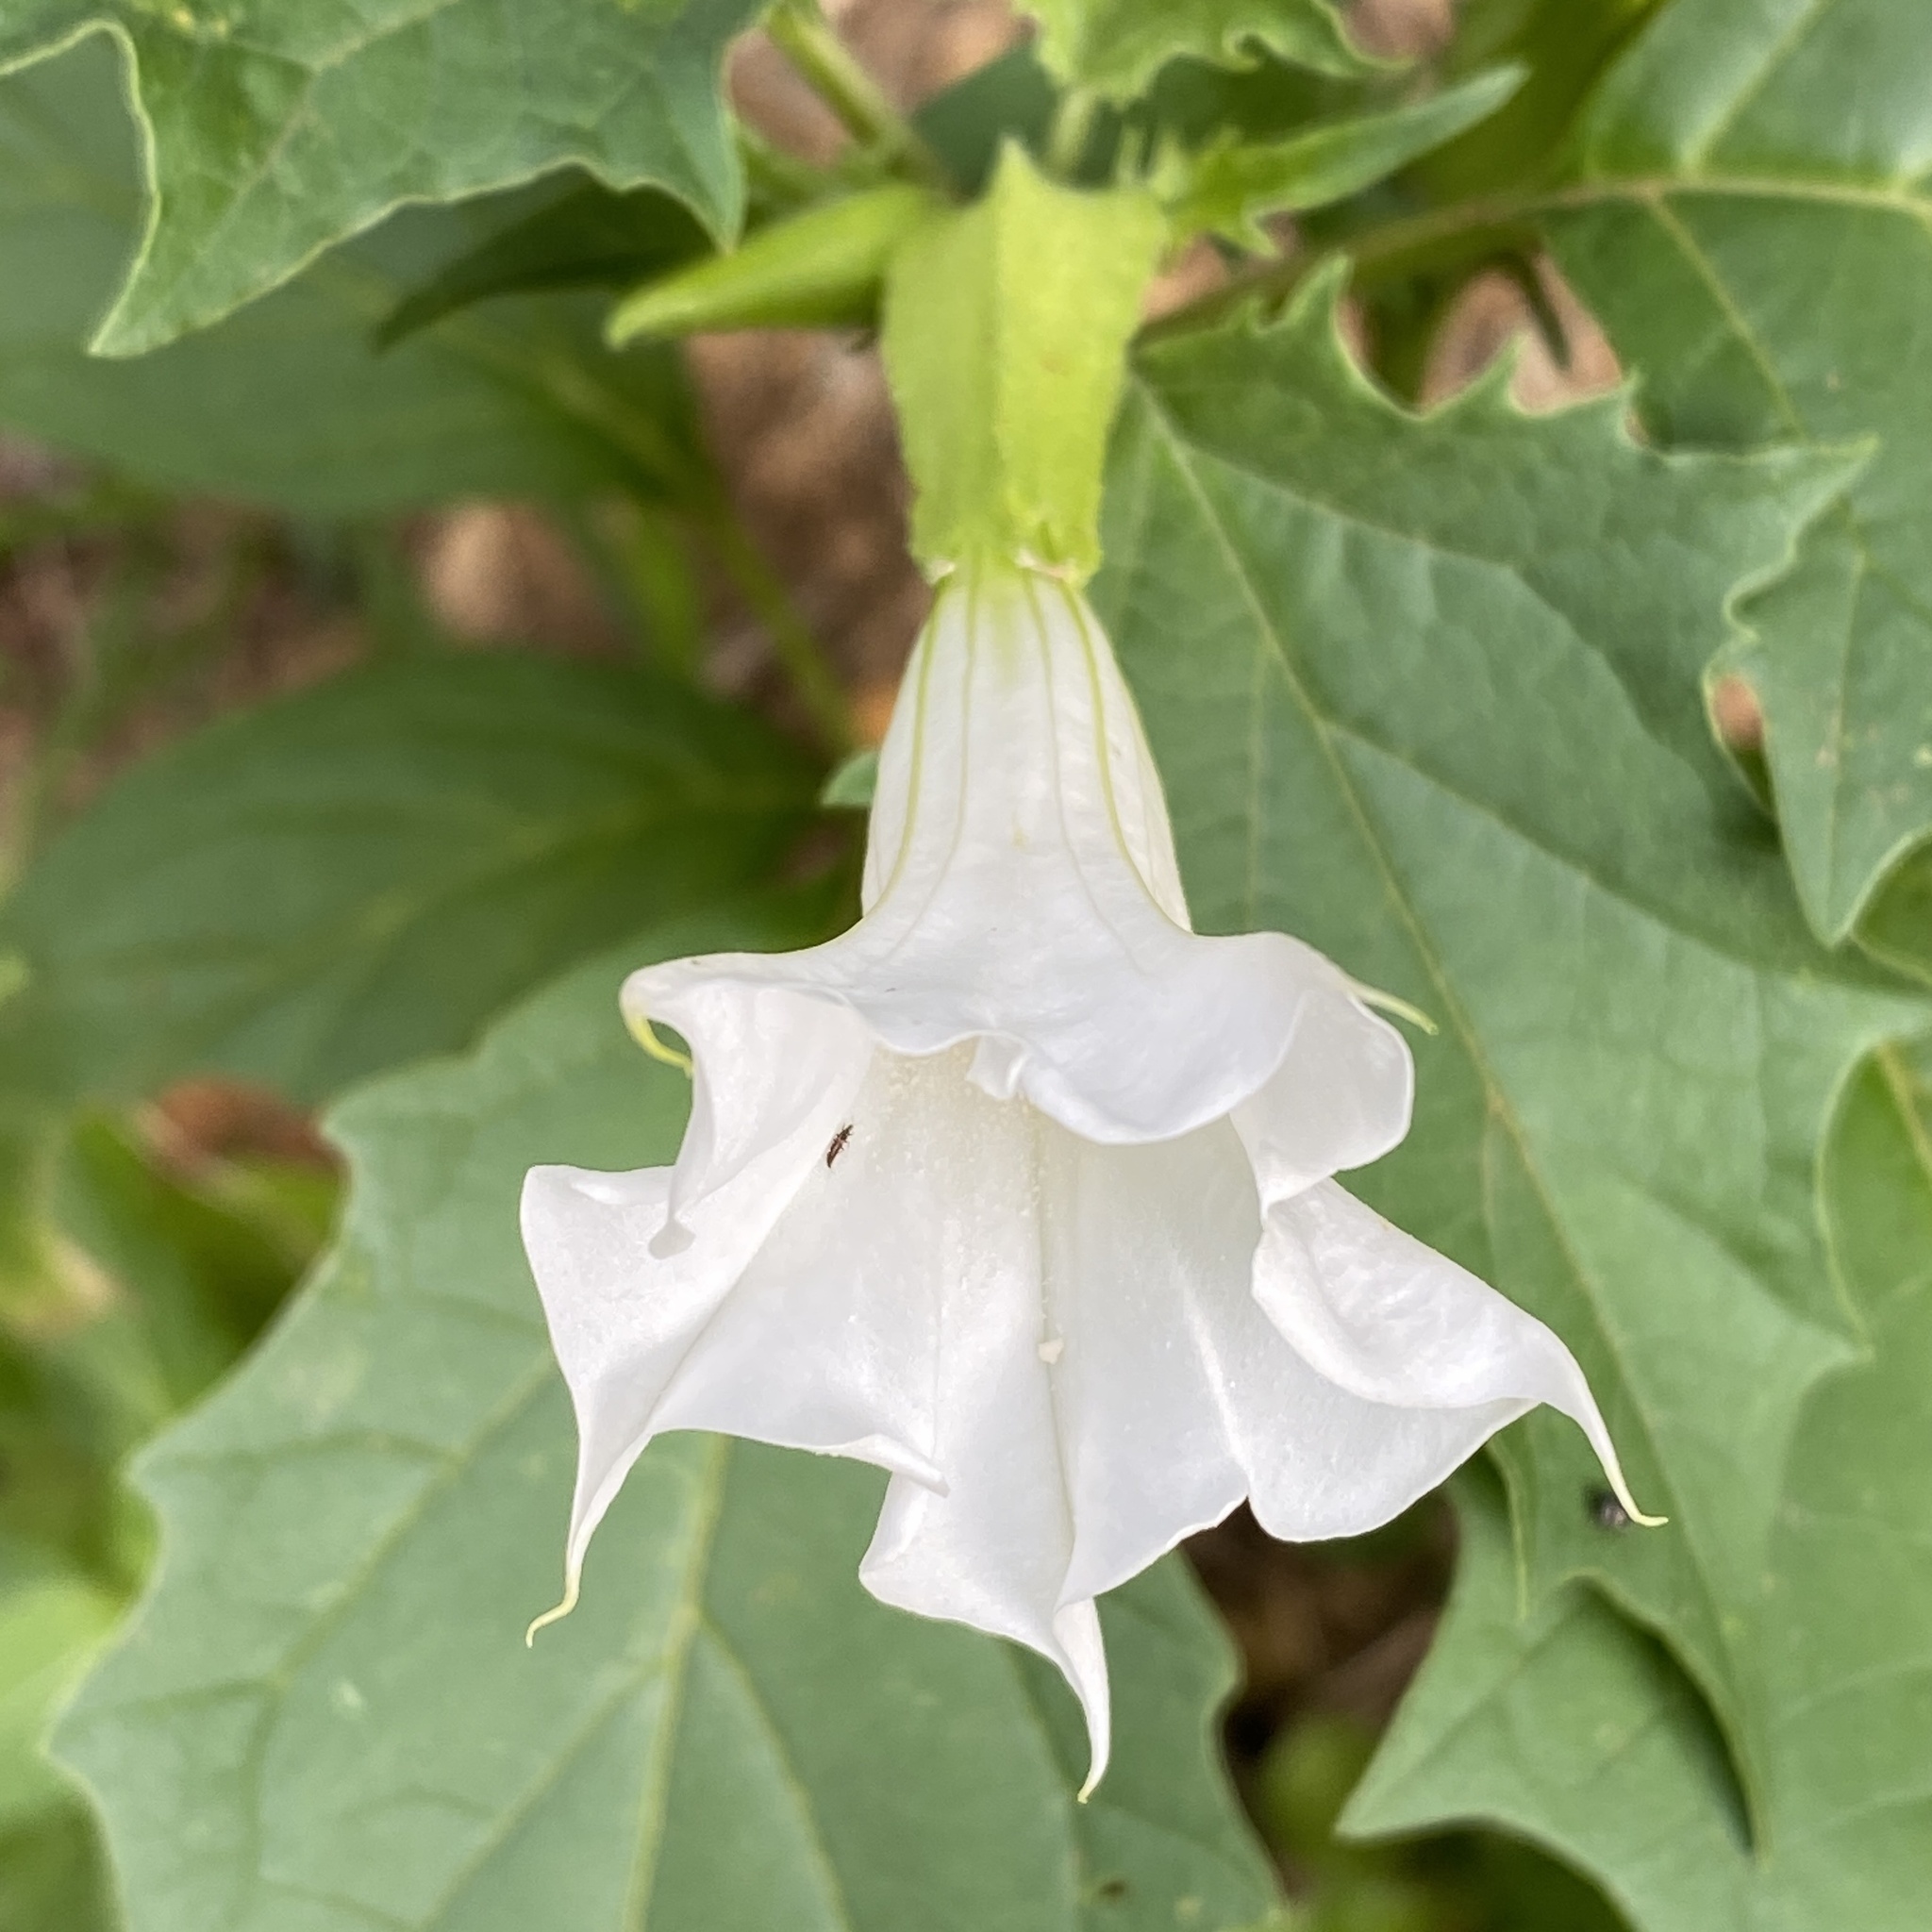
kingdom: Plantae
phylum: Tracheophyta
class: Magnoliopsida
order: Solanales
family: Solanaceae
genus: Datura
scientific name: Datura stramonium
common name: Thorn-apple
